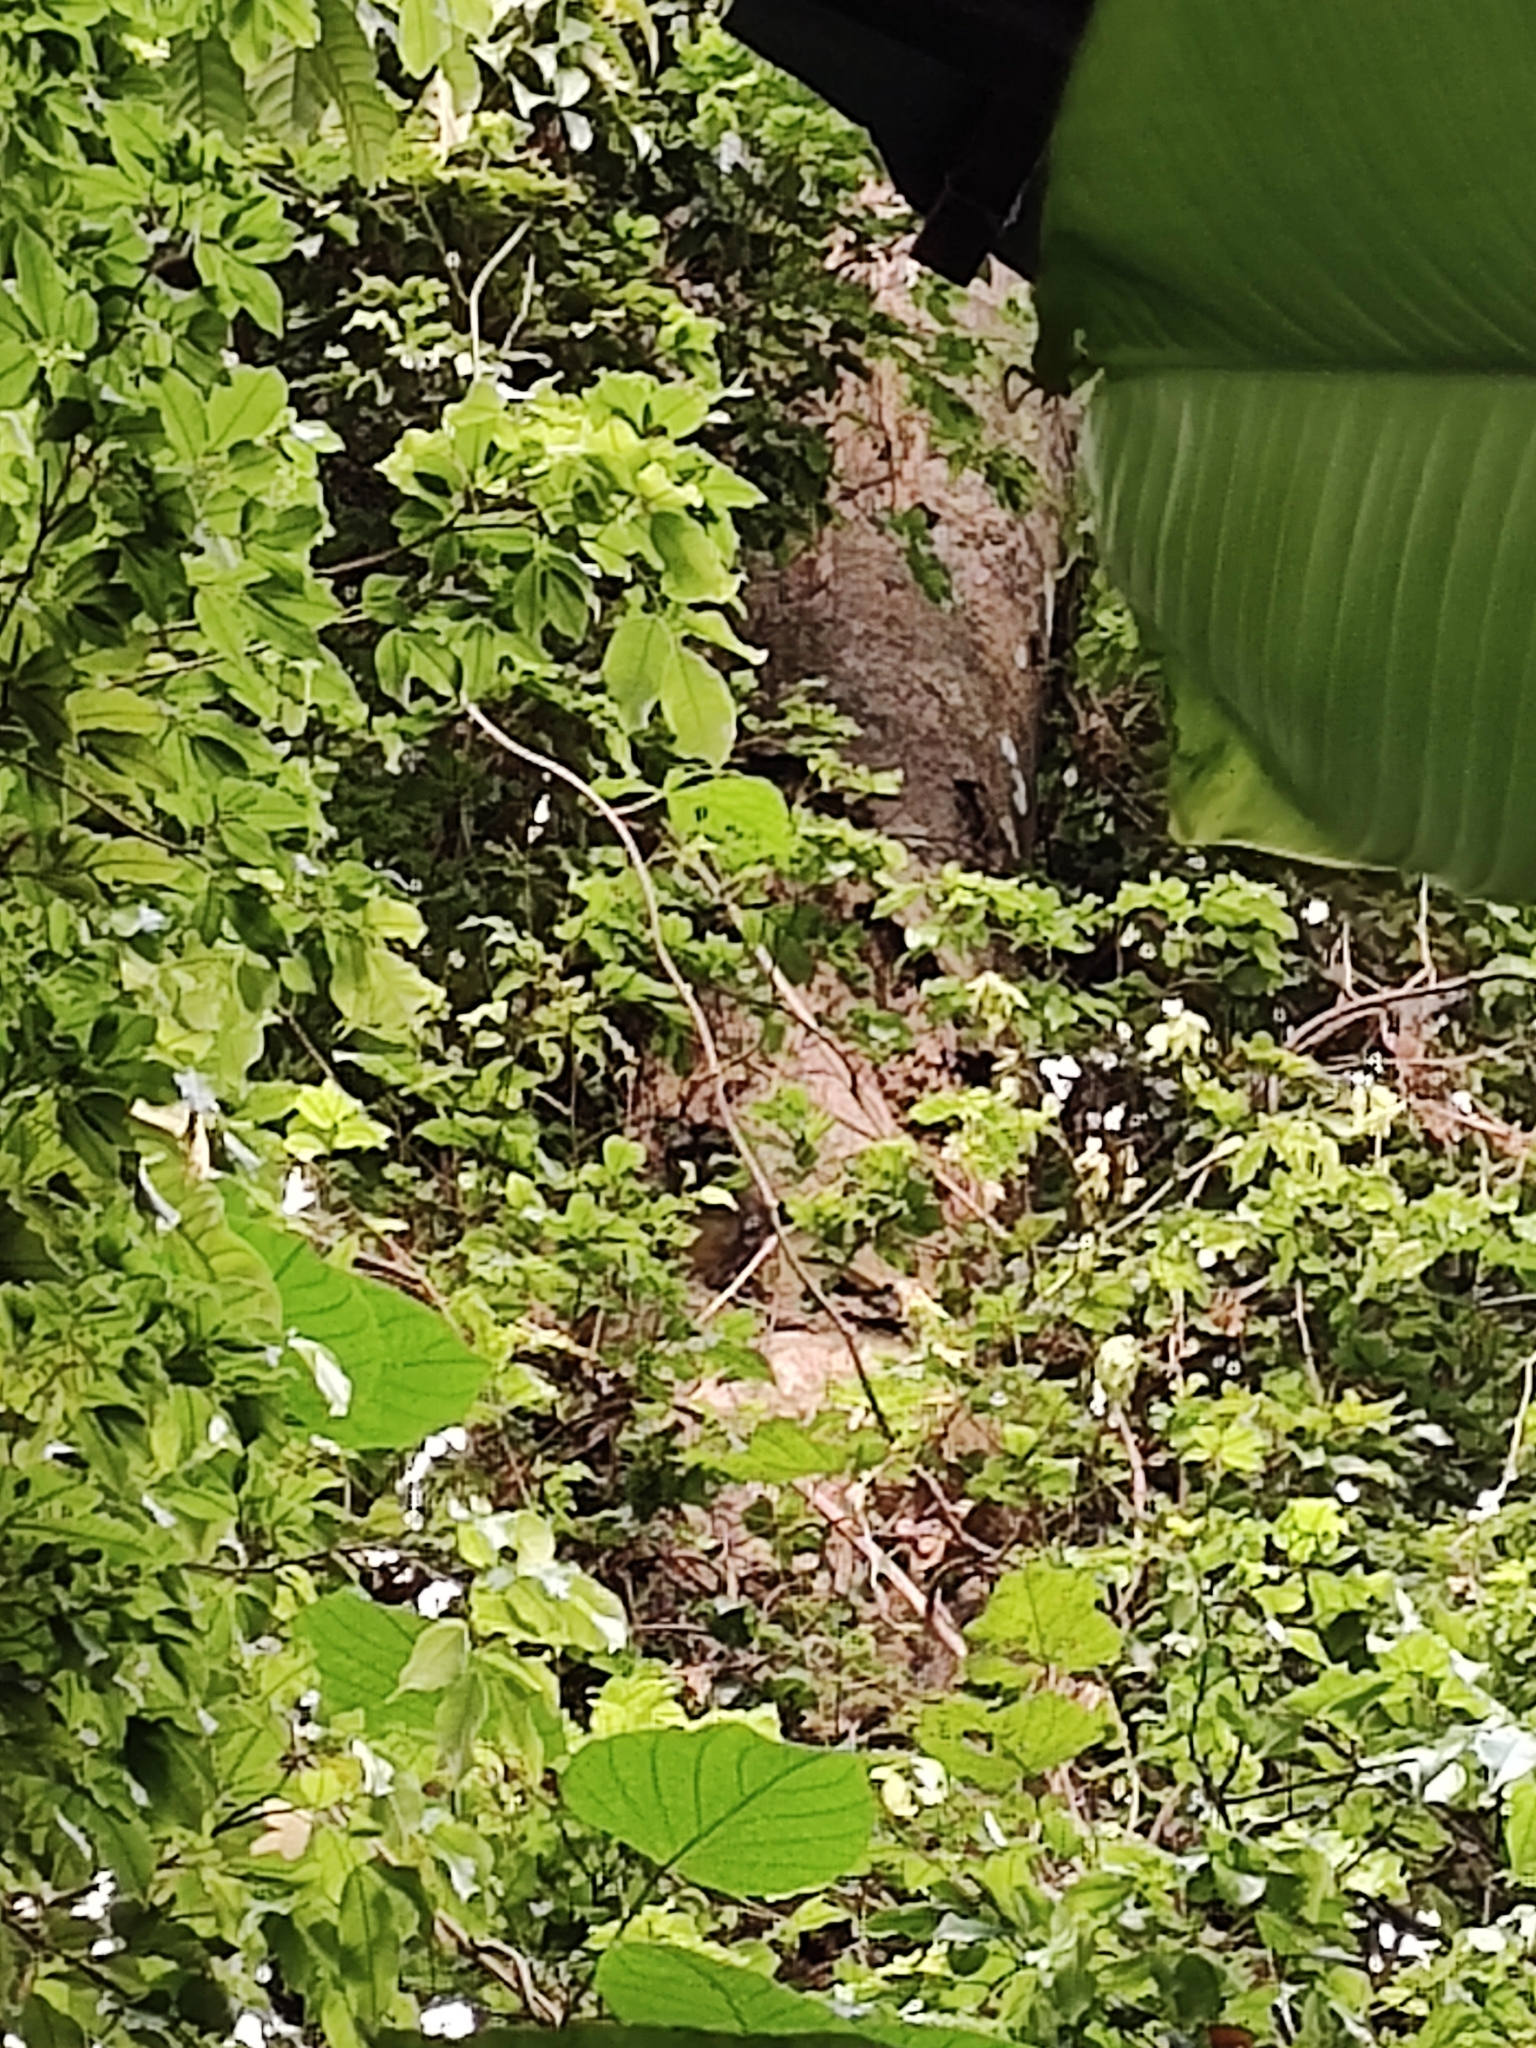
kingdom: Animalia
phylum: Chordata
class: Mammalia
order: Primates
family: Aotidae
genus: Aotus
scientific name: Aotus brumbacki
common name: Brumback's night monkey
